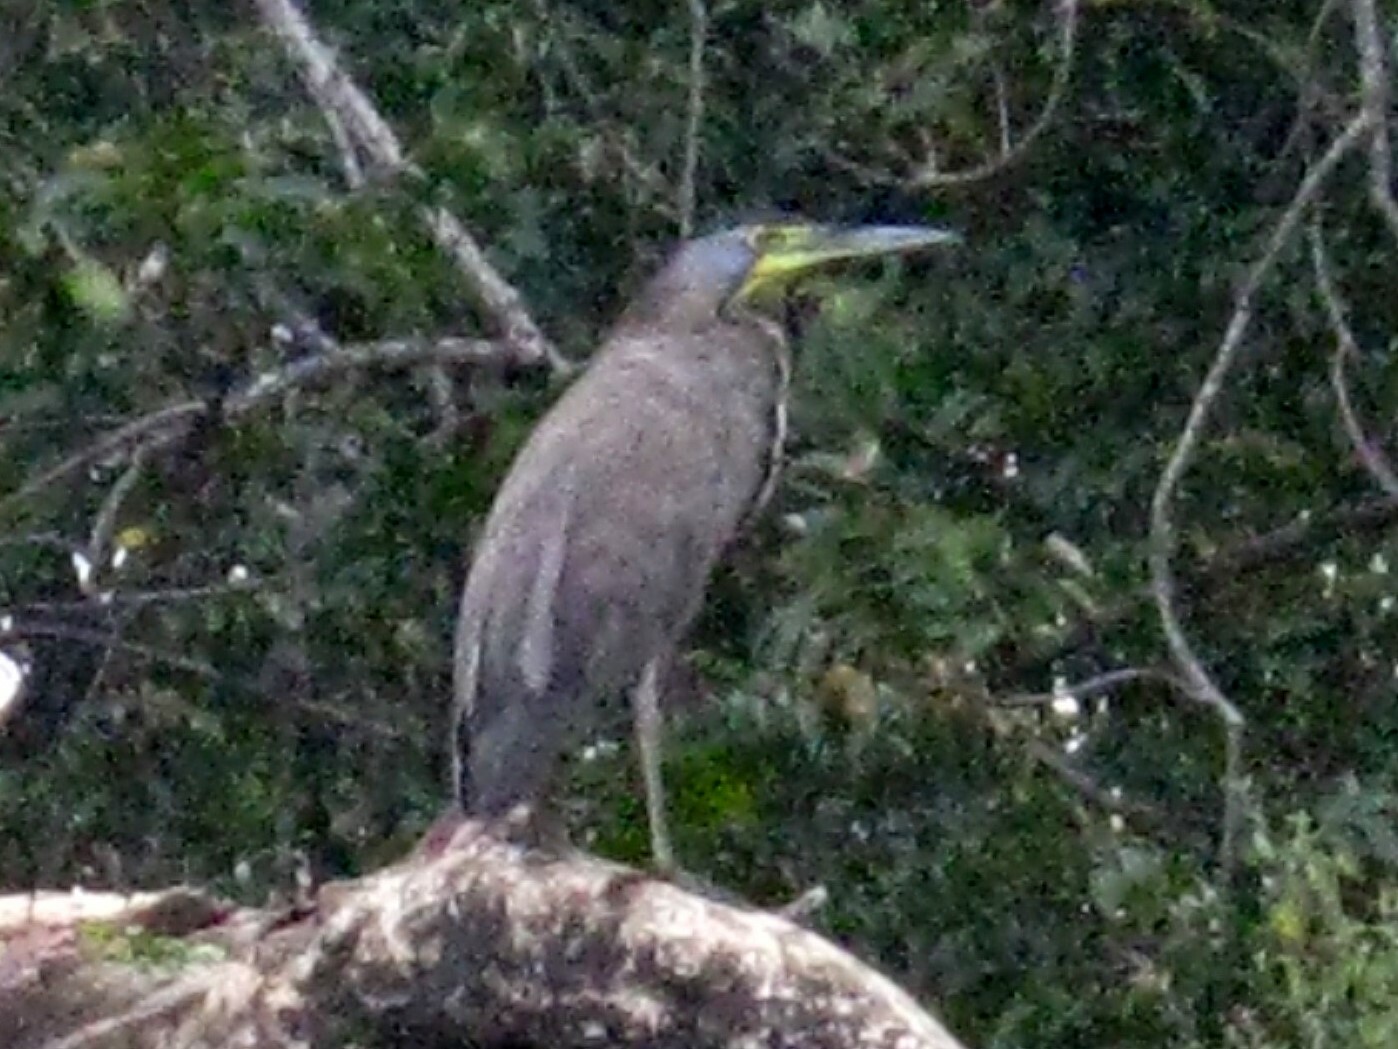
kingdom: Animalia
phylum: Chordata
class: Aves
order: Pelecaniformes
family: Ardeidae
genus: Tigrisoma
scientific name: Tigrisoma mexicanum
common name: Bare-throated tiger-heron
